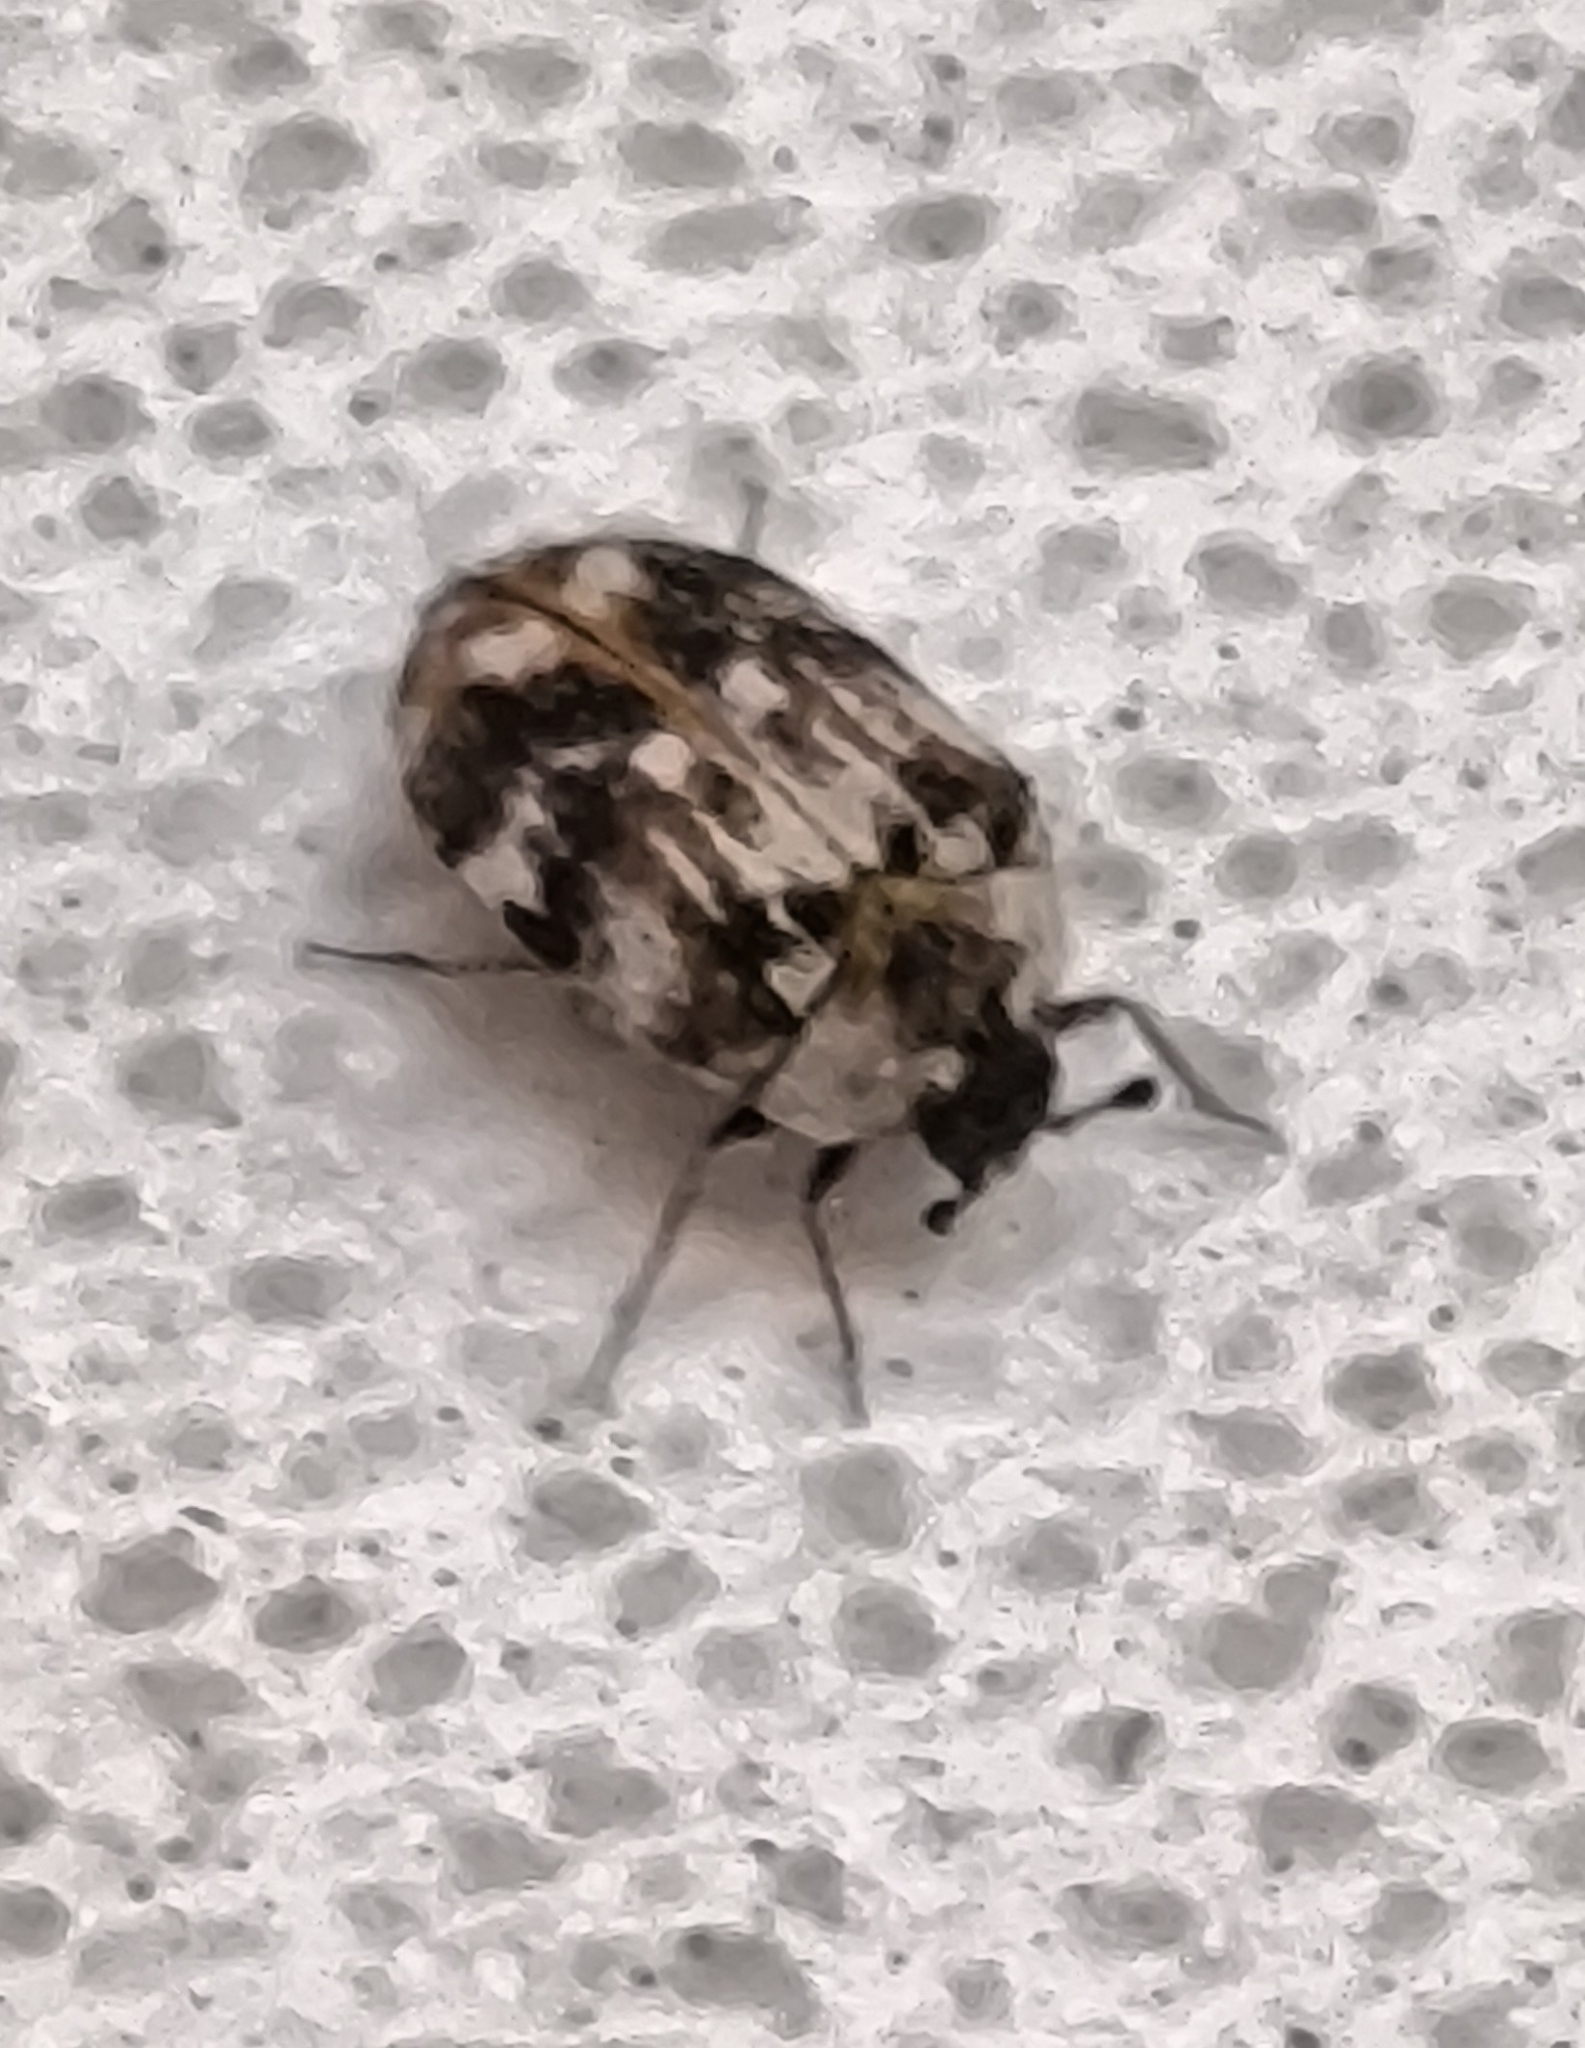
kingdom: Animalia
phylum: Arthropoda
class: Insecta
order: Coleoptera
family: Dermestidae
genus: Anthrenus
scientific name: Anthrenus picturatus
